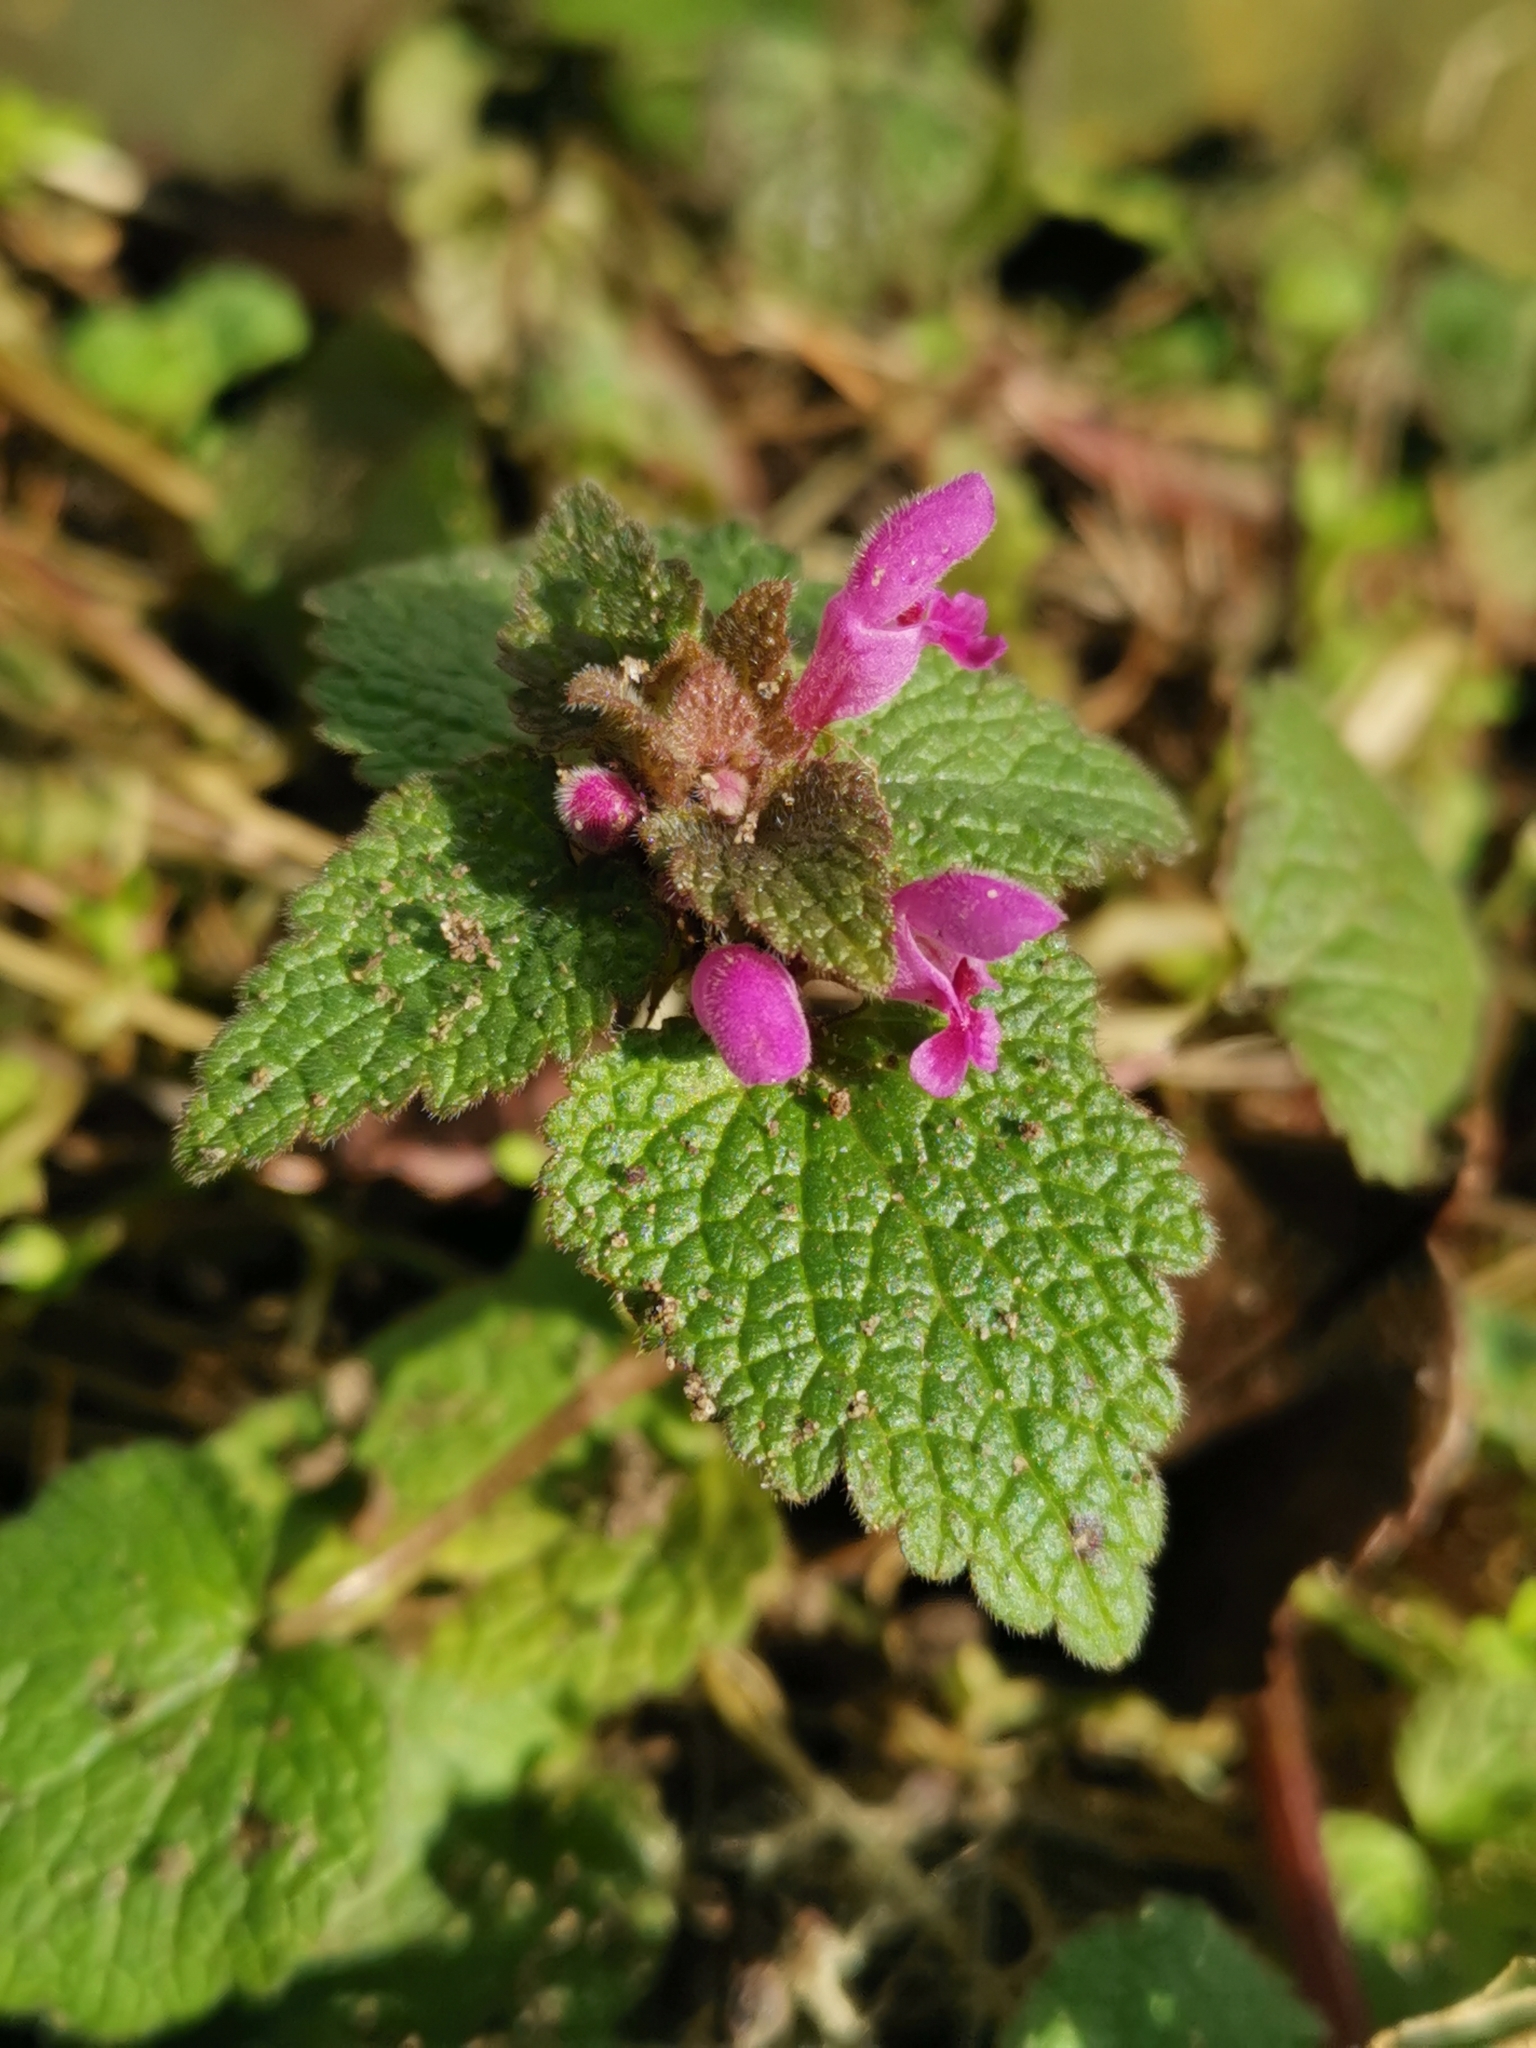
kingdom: Plantae
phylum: Tracheophyta
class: Magnoliopsida
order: Lamiales
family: Lamiaceae
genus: Lamium
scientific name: Lamium purpureum
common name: Red dead-nettle
